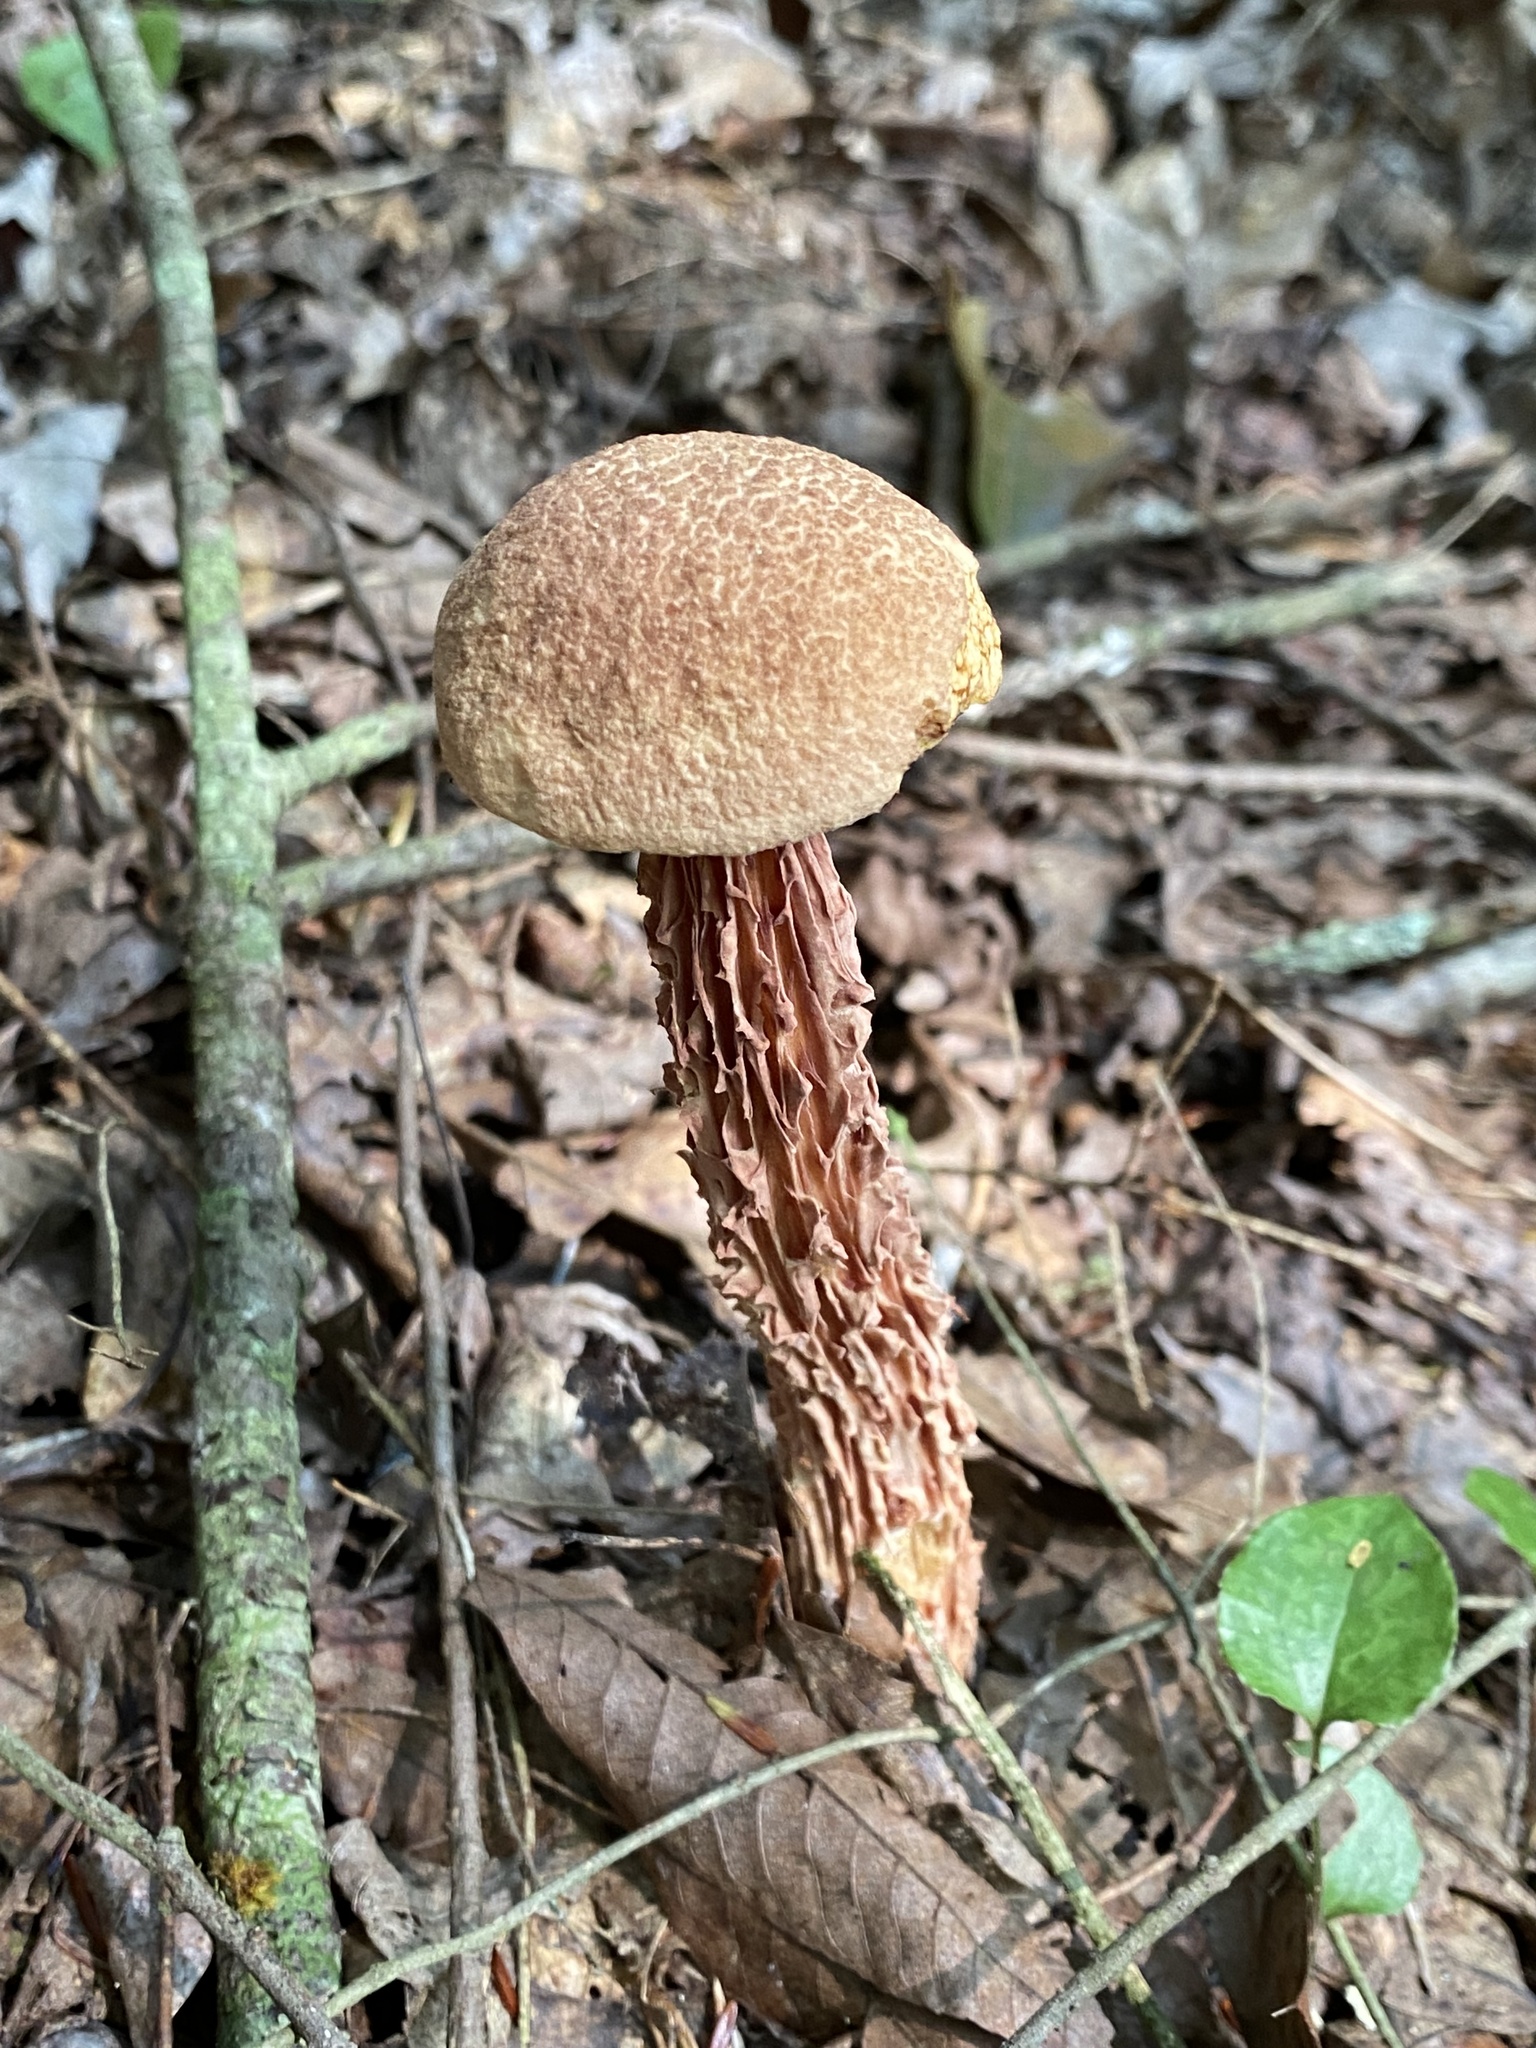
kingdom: Fungi
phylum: Basidiomycota
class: Agaricomycetes
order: Boletales
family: Boletaceae
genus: Aureoboletus
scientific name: Aureoboletus russellii
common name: Russell's bolete
